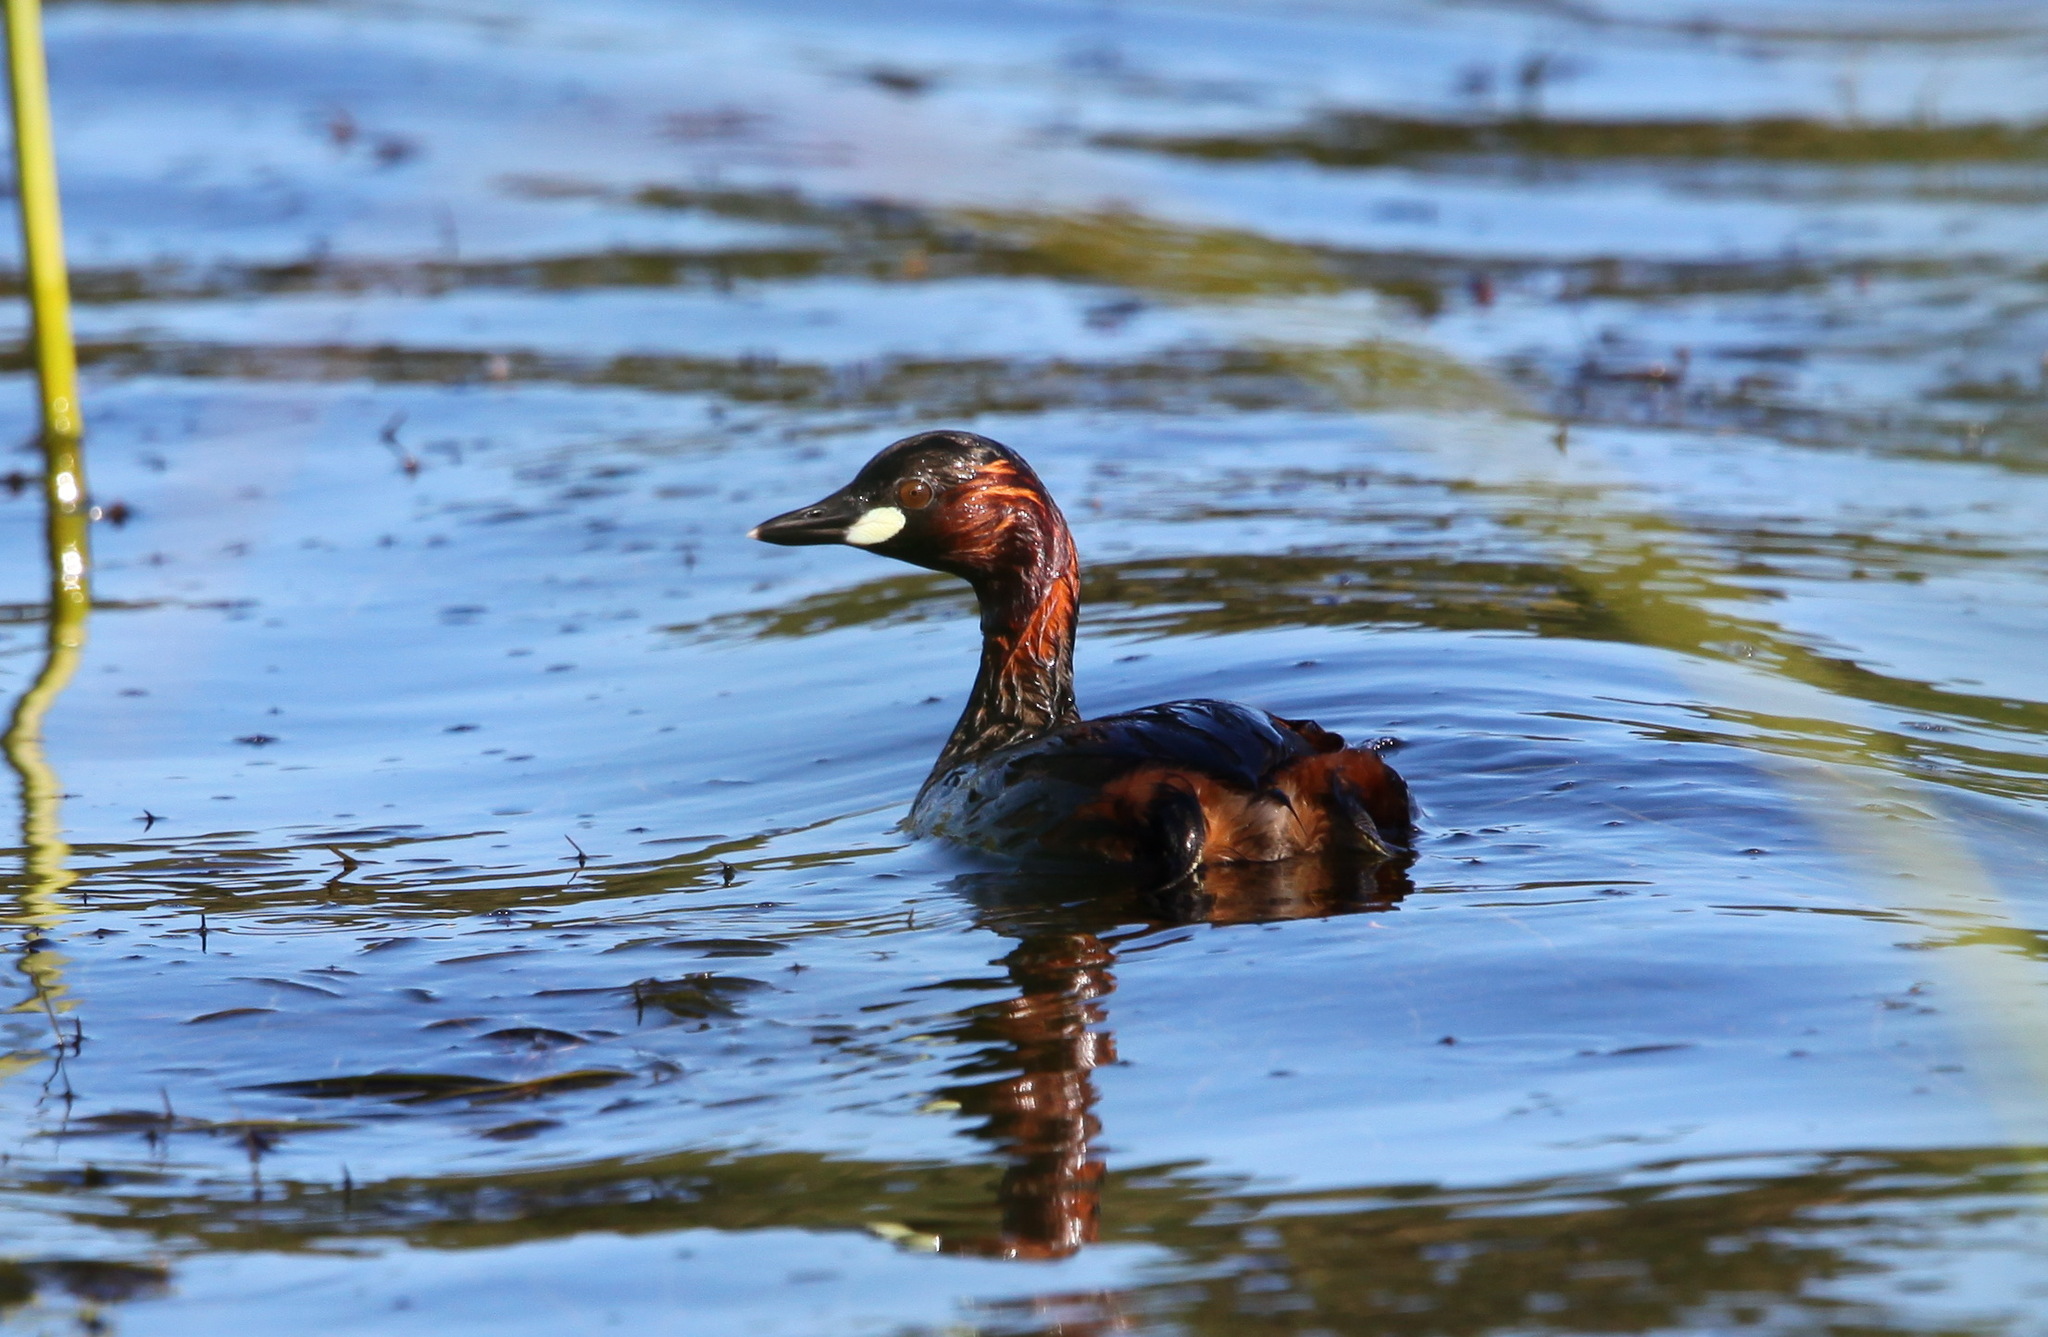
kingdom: Animalia
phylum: Chordata
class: Aves
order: Podicipediformes
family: Podicipedidae
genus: Tachybaptus
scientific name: Tachybaptus ruficollis
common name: Little grebe
